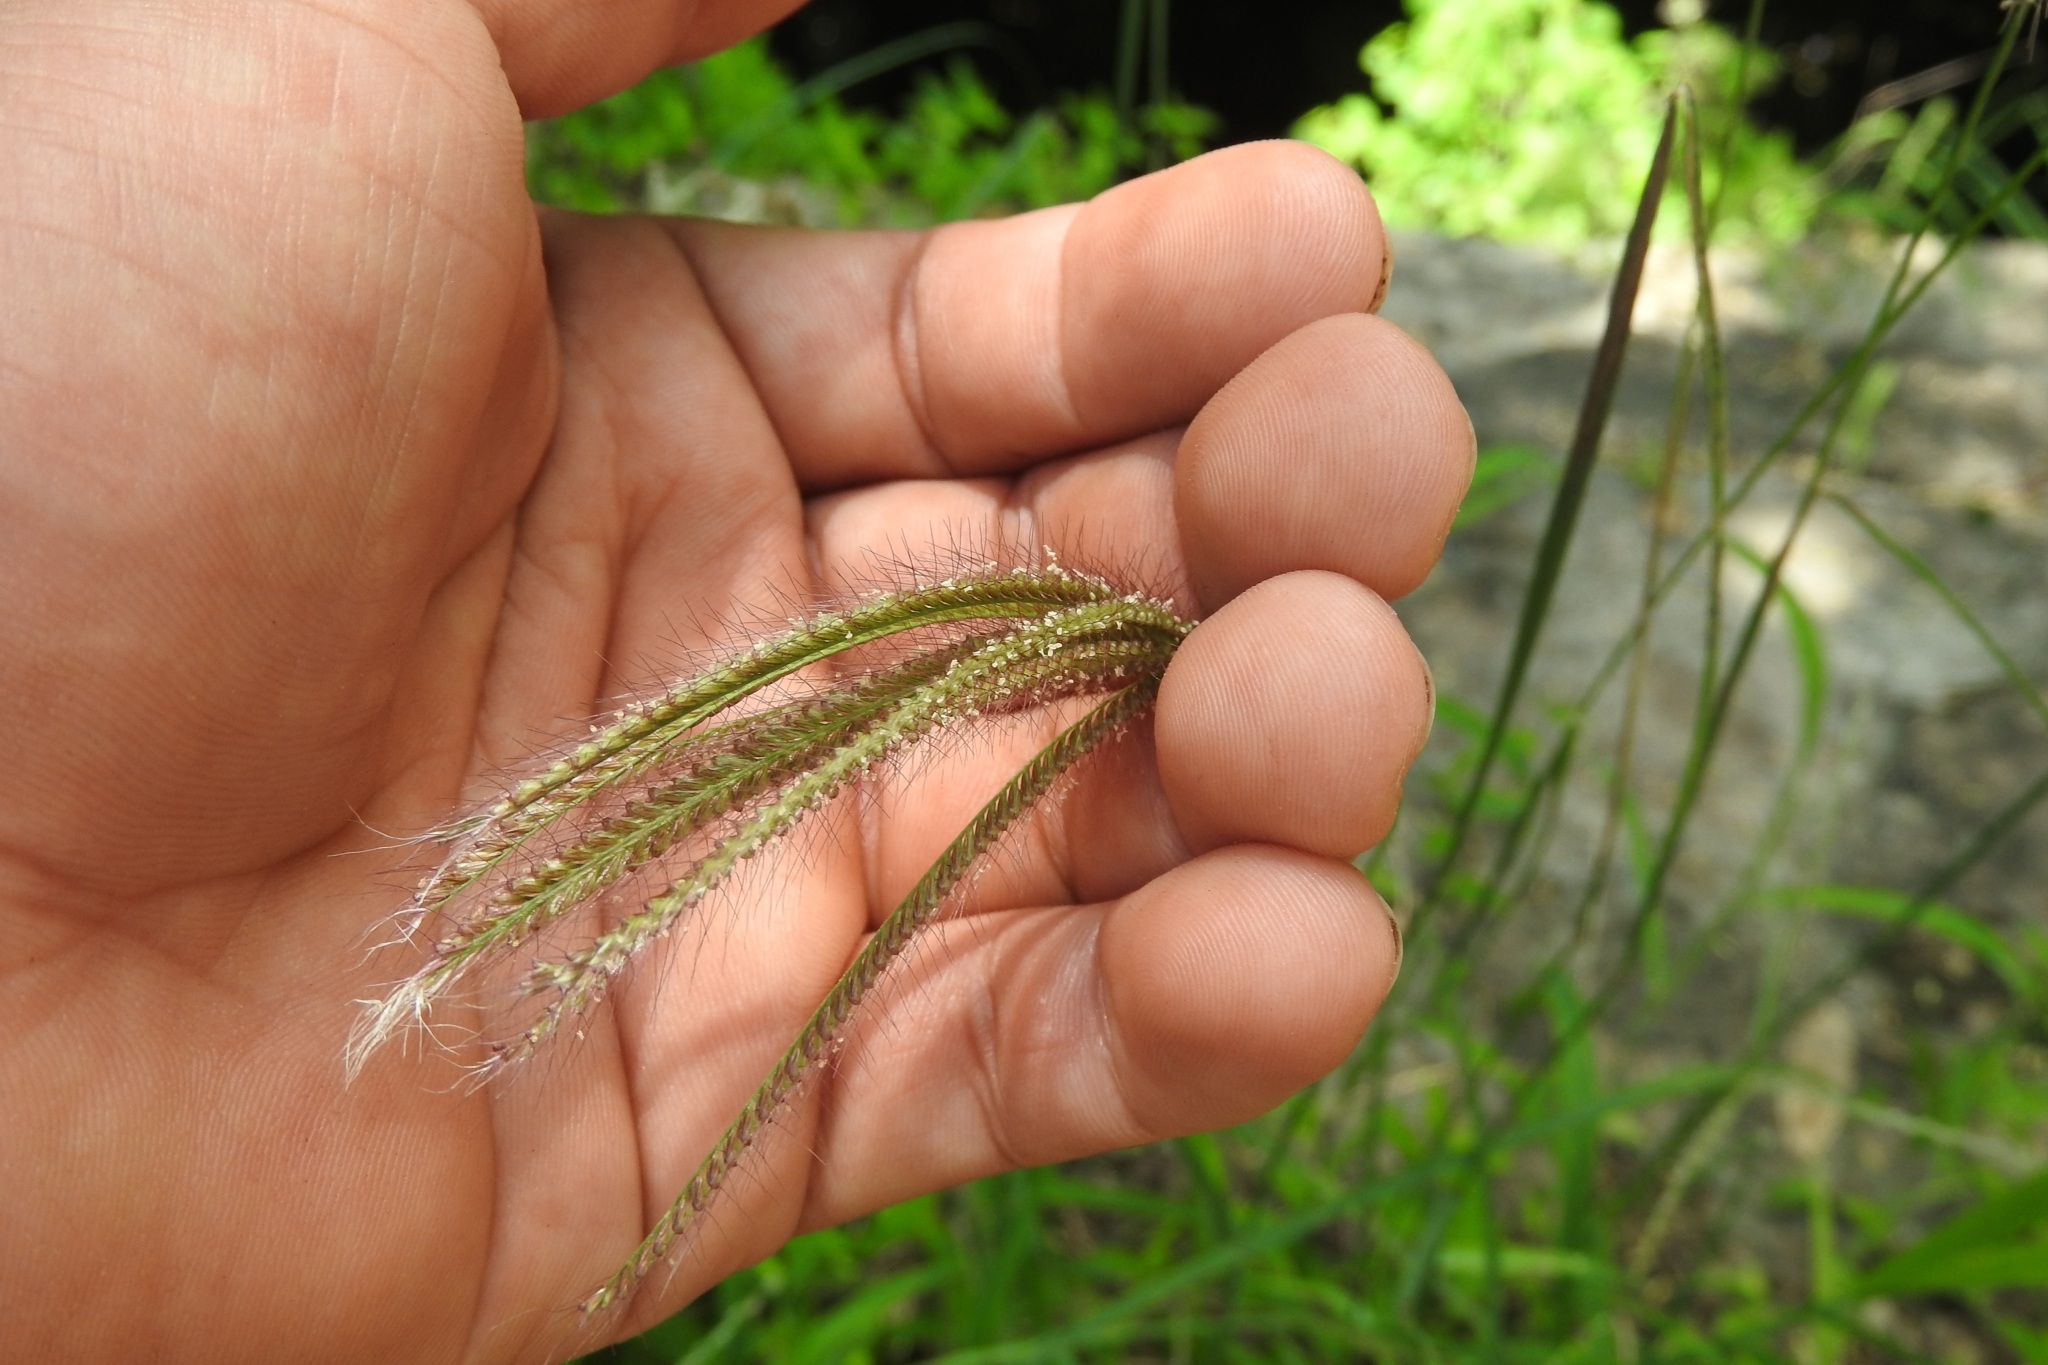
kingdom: Plantae
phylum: Tracheophyta
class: Liliopsida
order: Poales
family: Poaceae
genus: Chloris
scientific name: Chloris barbata
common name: Swollen fingergrass
